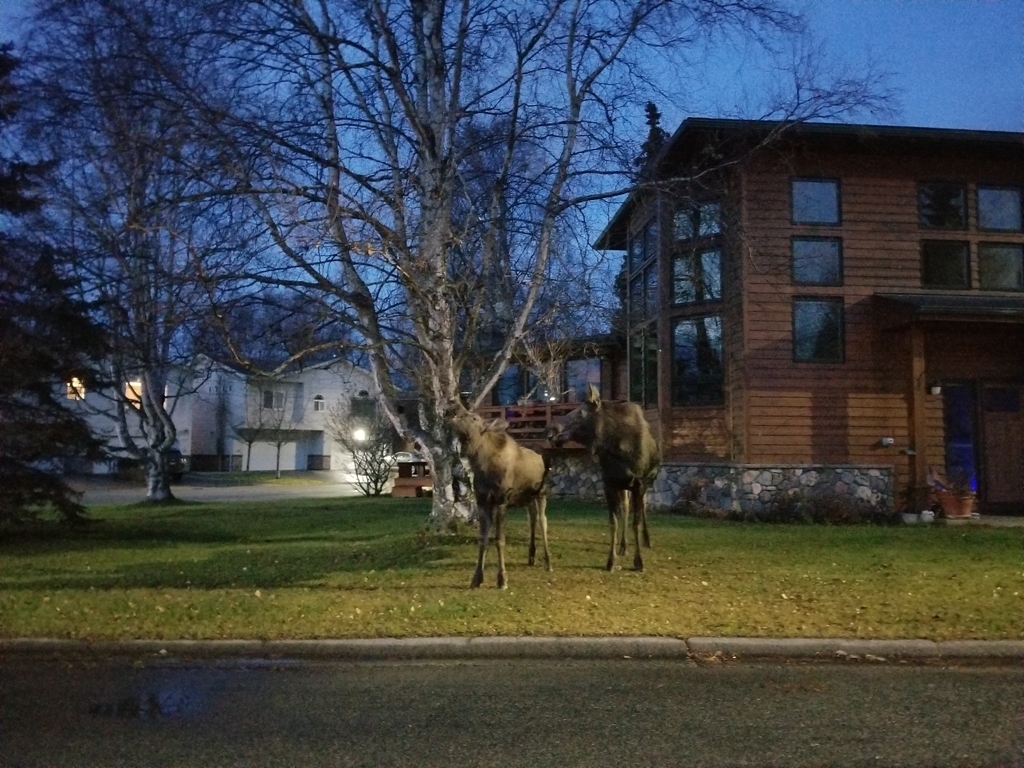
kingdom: Animalia
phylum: Chordata
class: Mammalia
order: Artiodactyla
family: Cervidae
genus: Alces
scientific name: Alces alces
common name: Moose
